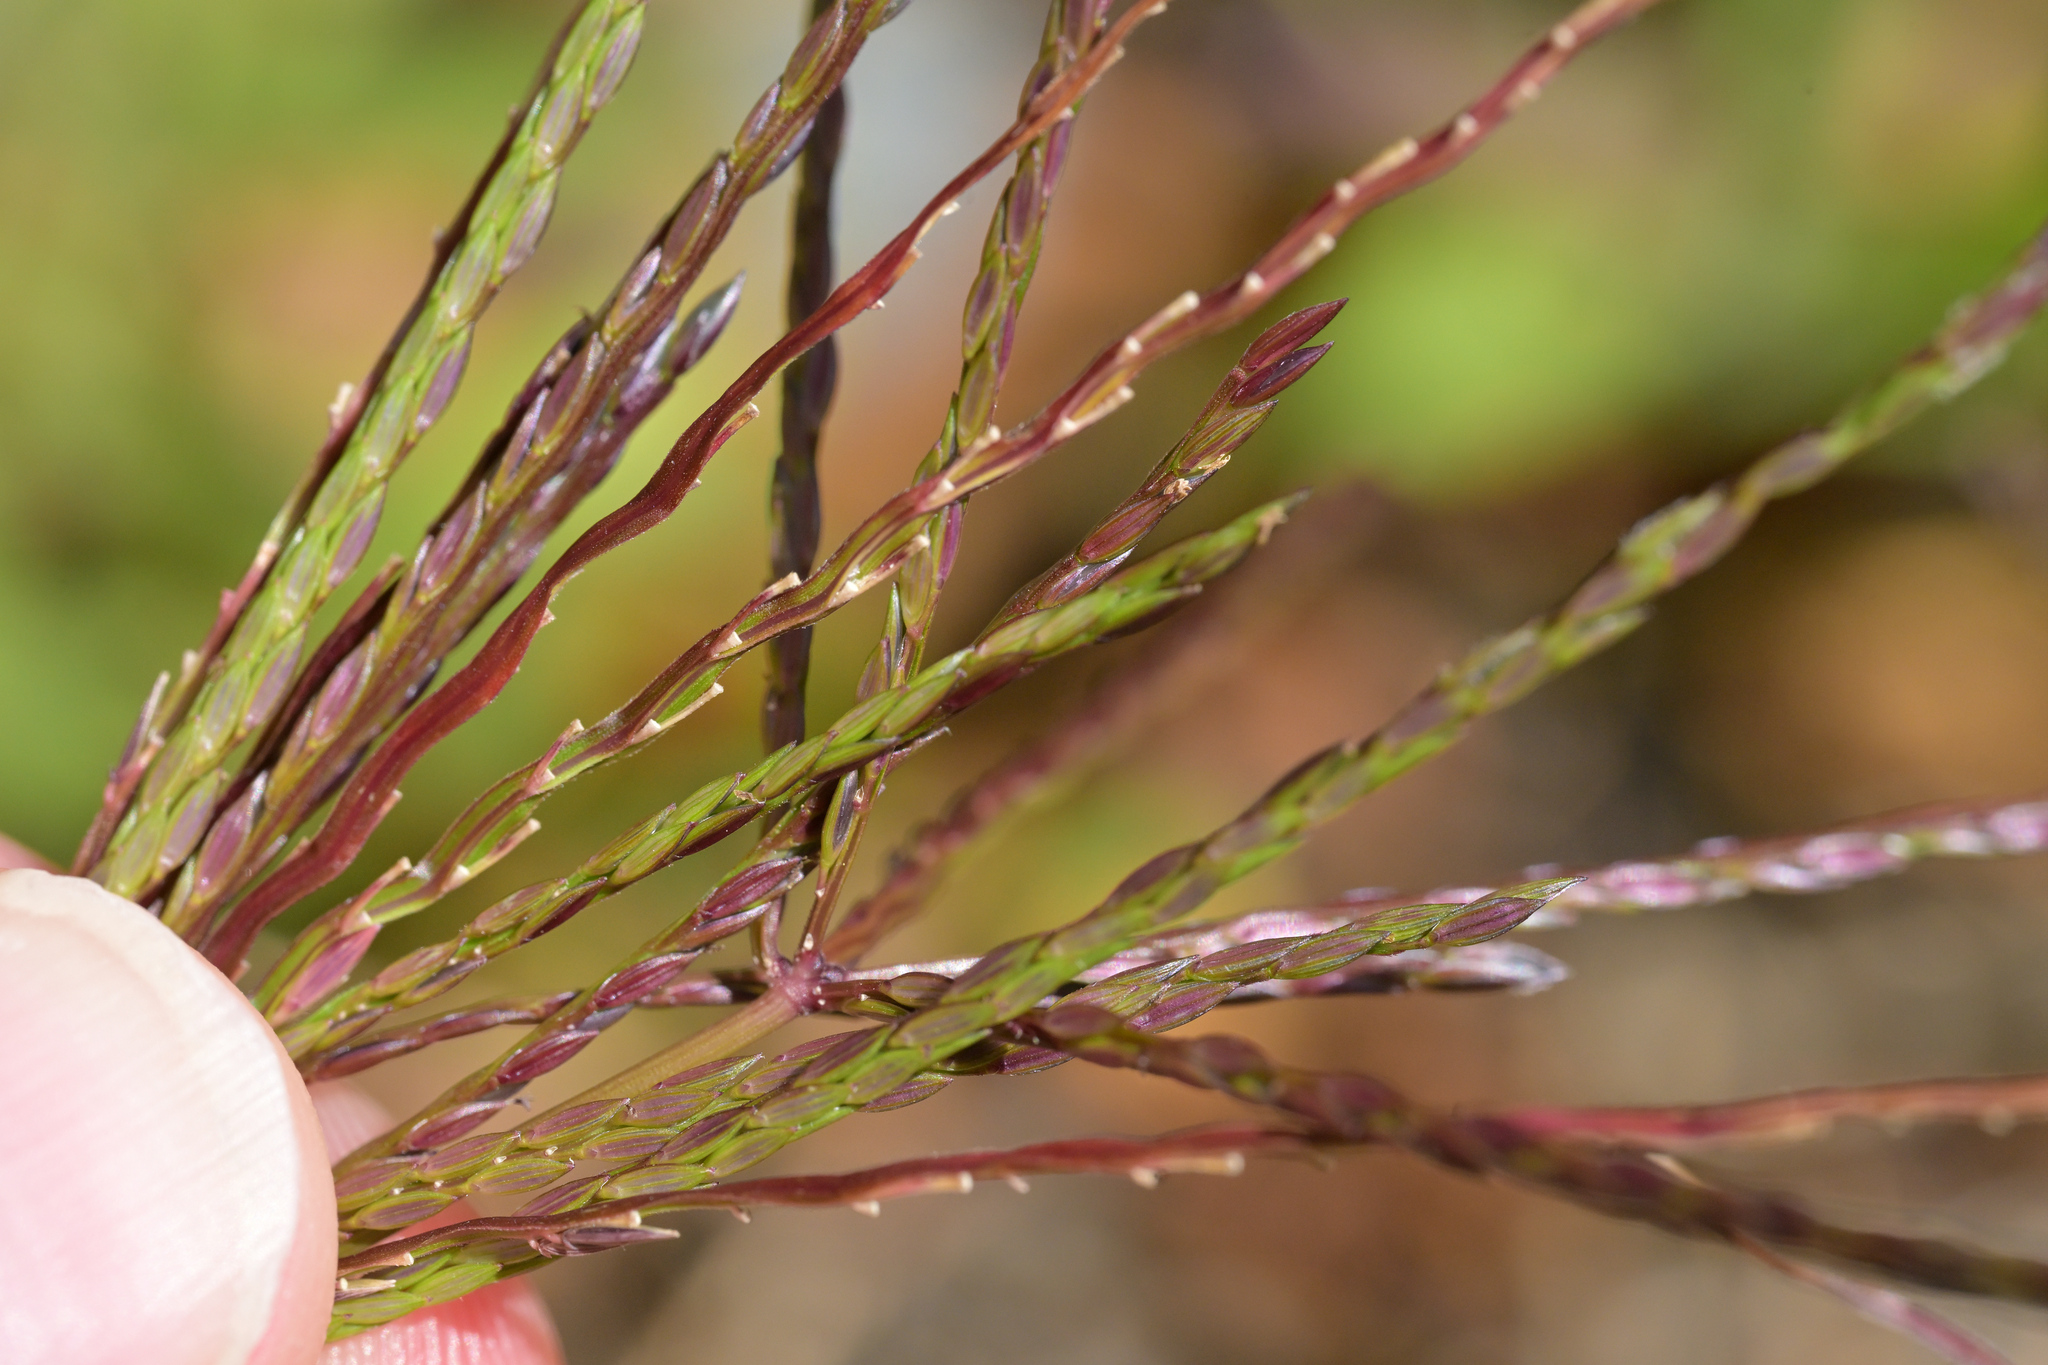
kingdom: Plantae
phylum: Tracheophyta
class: Liliopsida
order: Poales
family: Poaceae
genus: Digitaria
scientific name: Digitaria sanguinalis
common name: Hairy crabgrass
